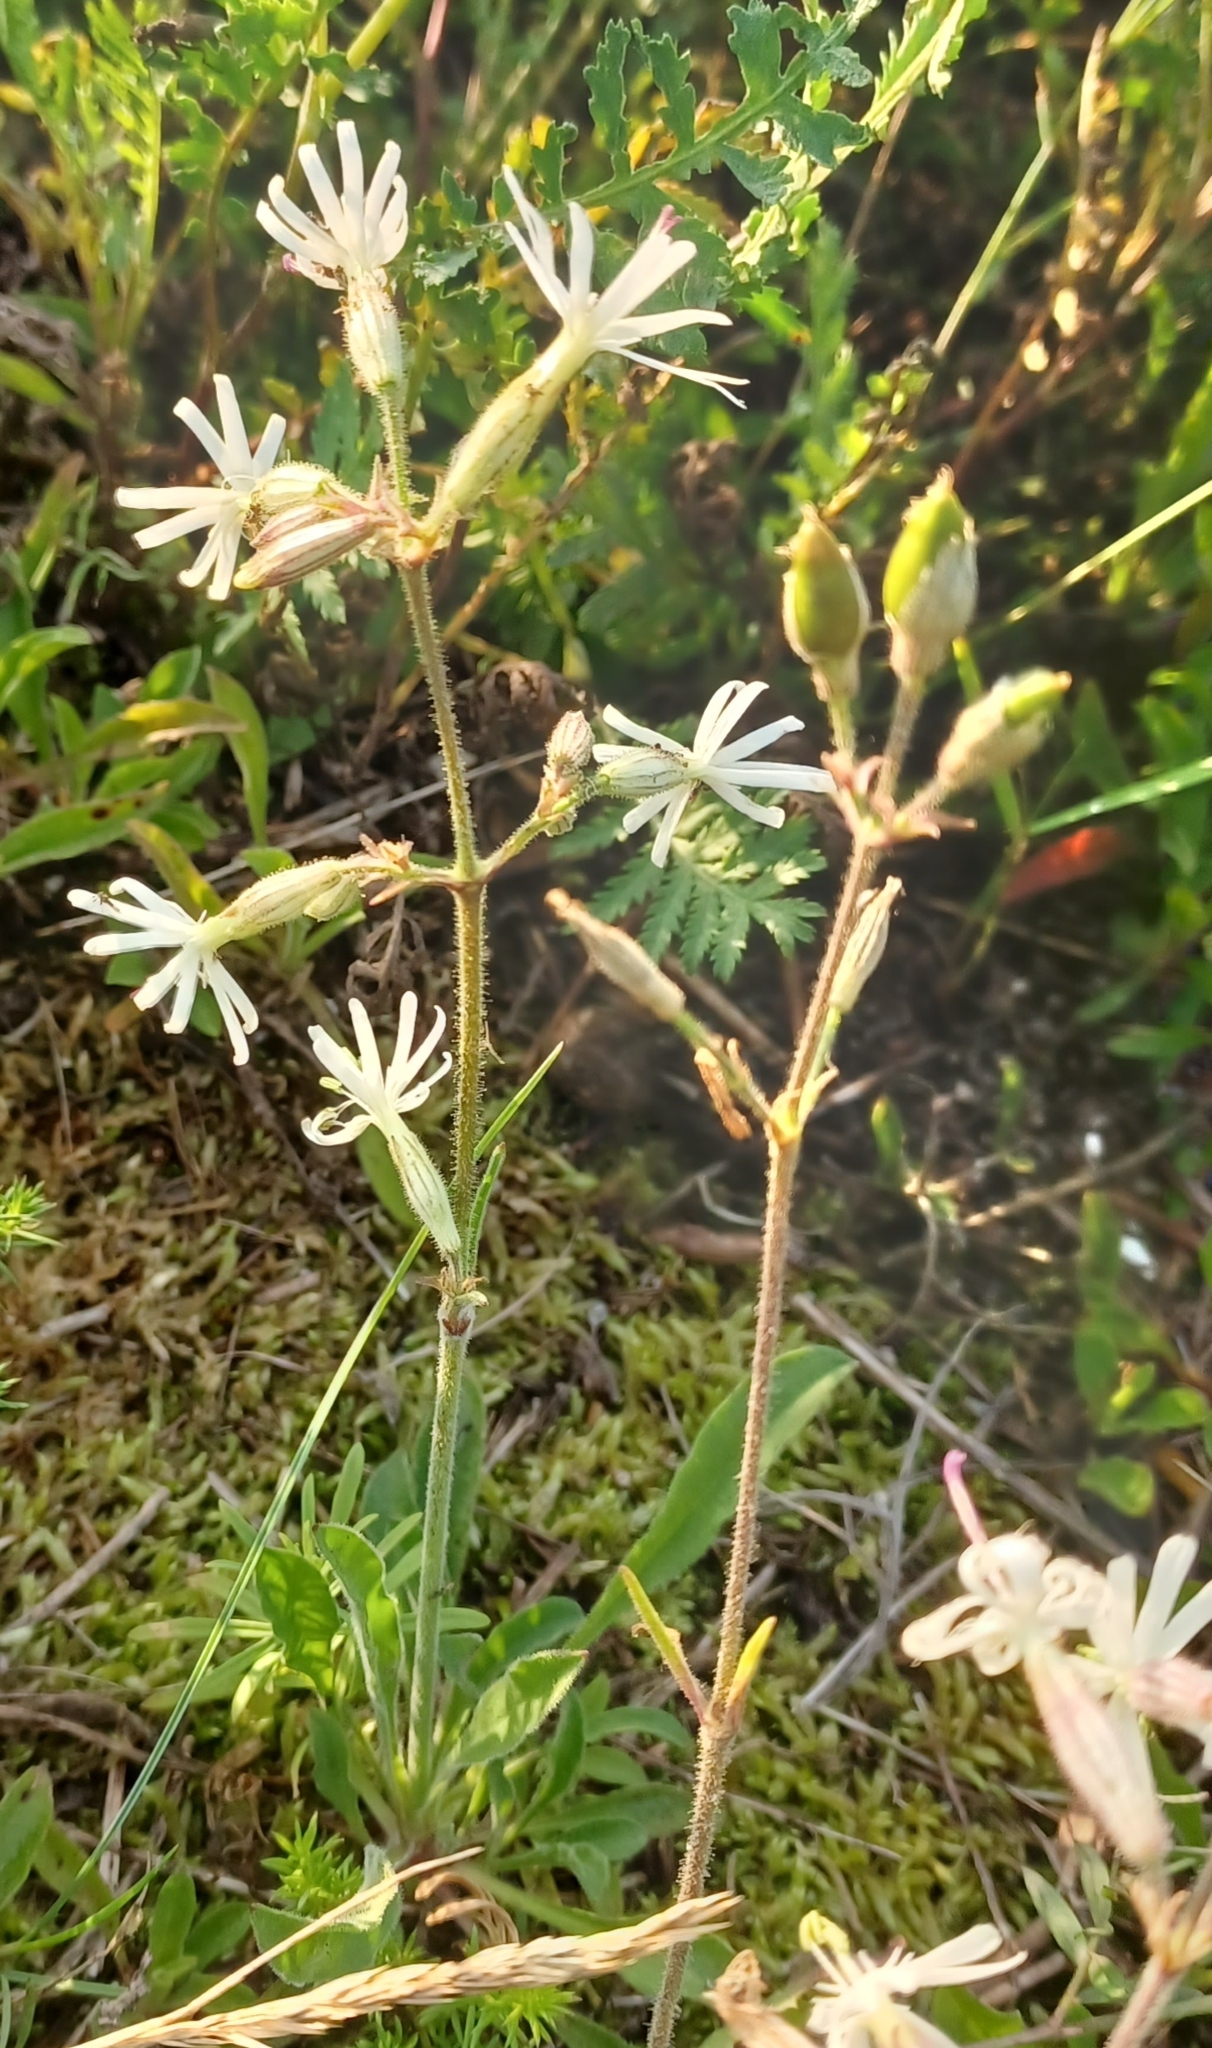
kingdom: Plantae
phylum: Tracheophyta
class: Magnoliopsida
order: Caryophyllales
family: Caryophyllaceae
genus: Silene
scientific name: Silene nutans
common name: Nottingham catchfly
